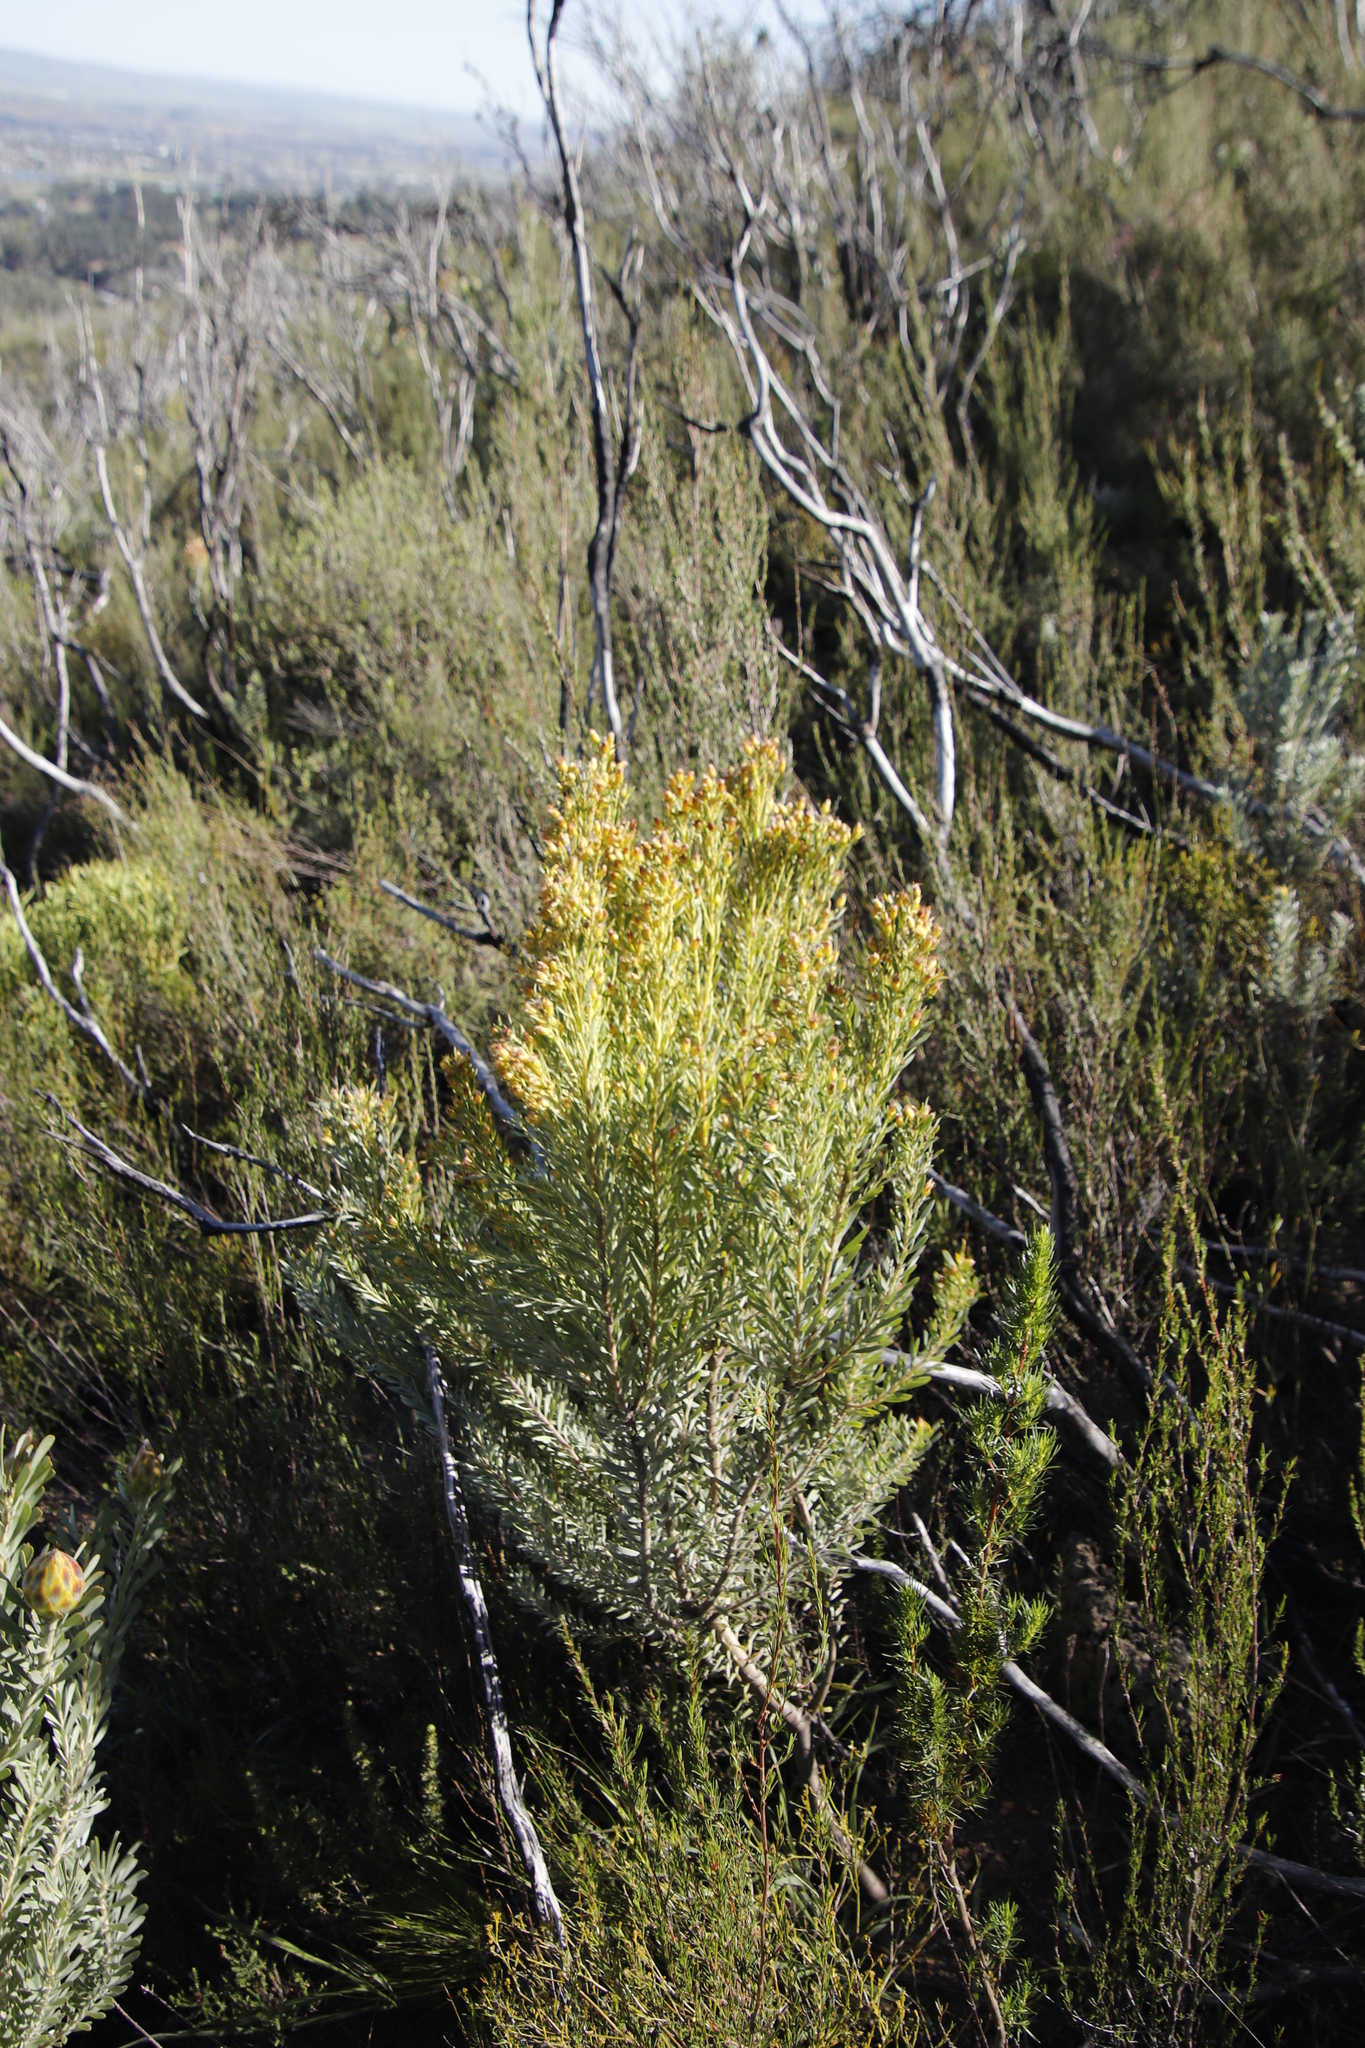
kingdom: Plantae
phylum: Tracheophyta
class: Magnoliopsida
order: Proteales
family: Proteaceae
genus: Leucadendron
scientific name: Leucadendron rubrum
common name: Spinning top
